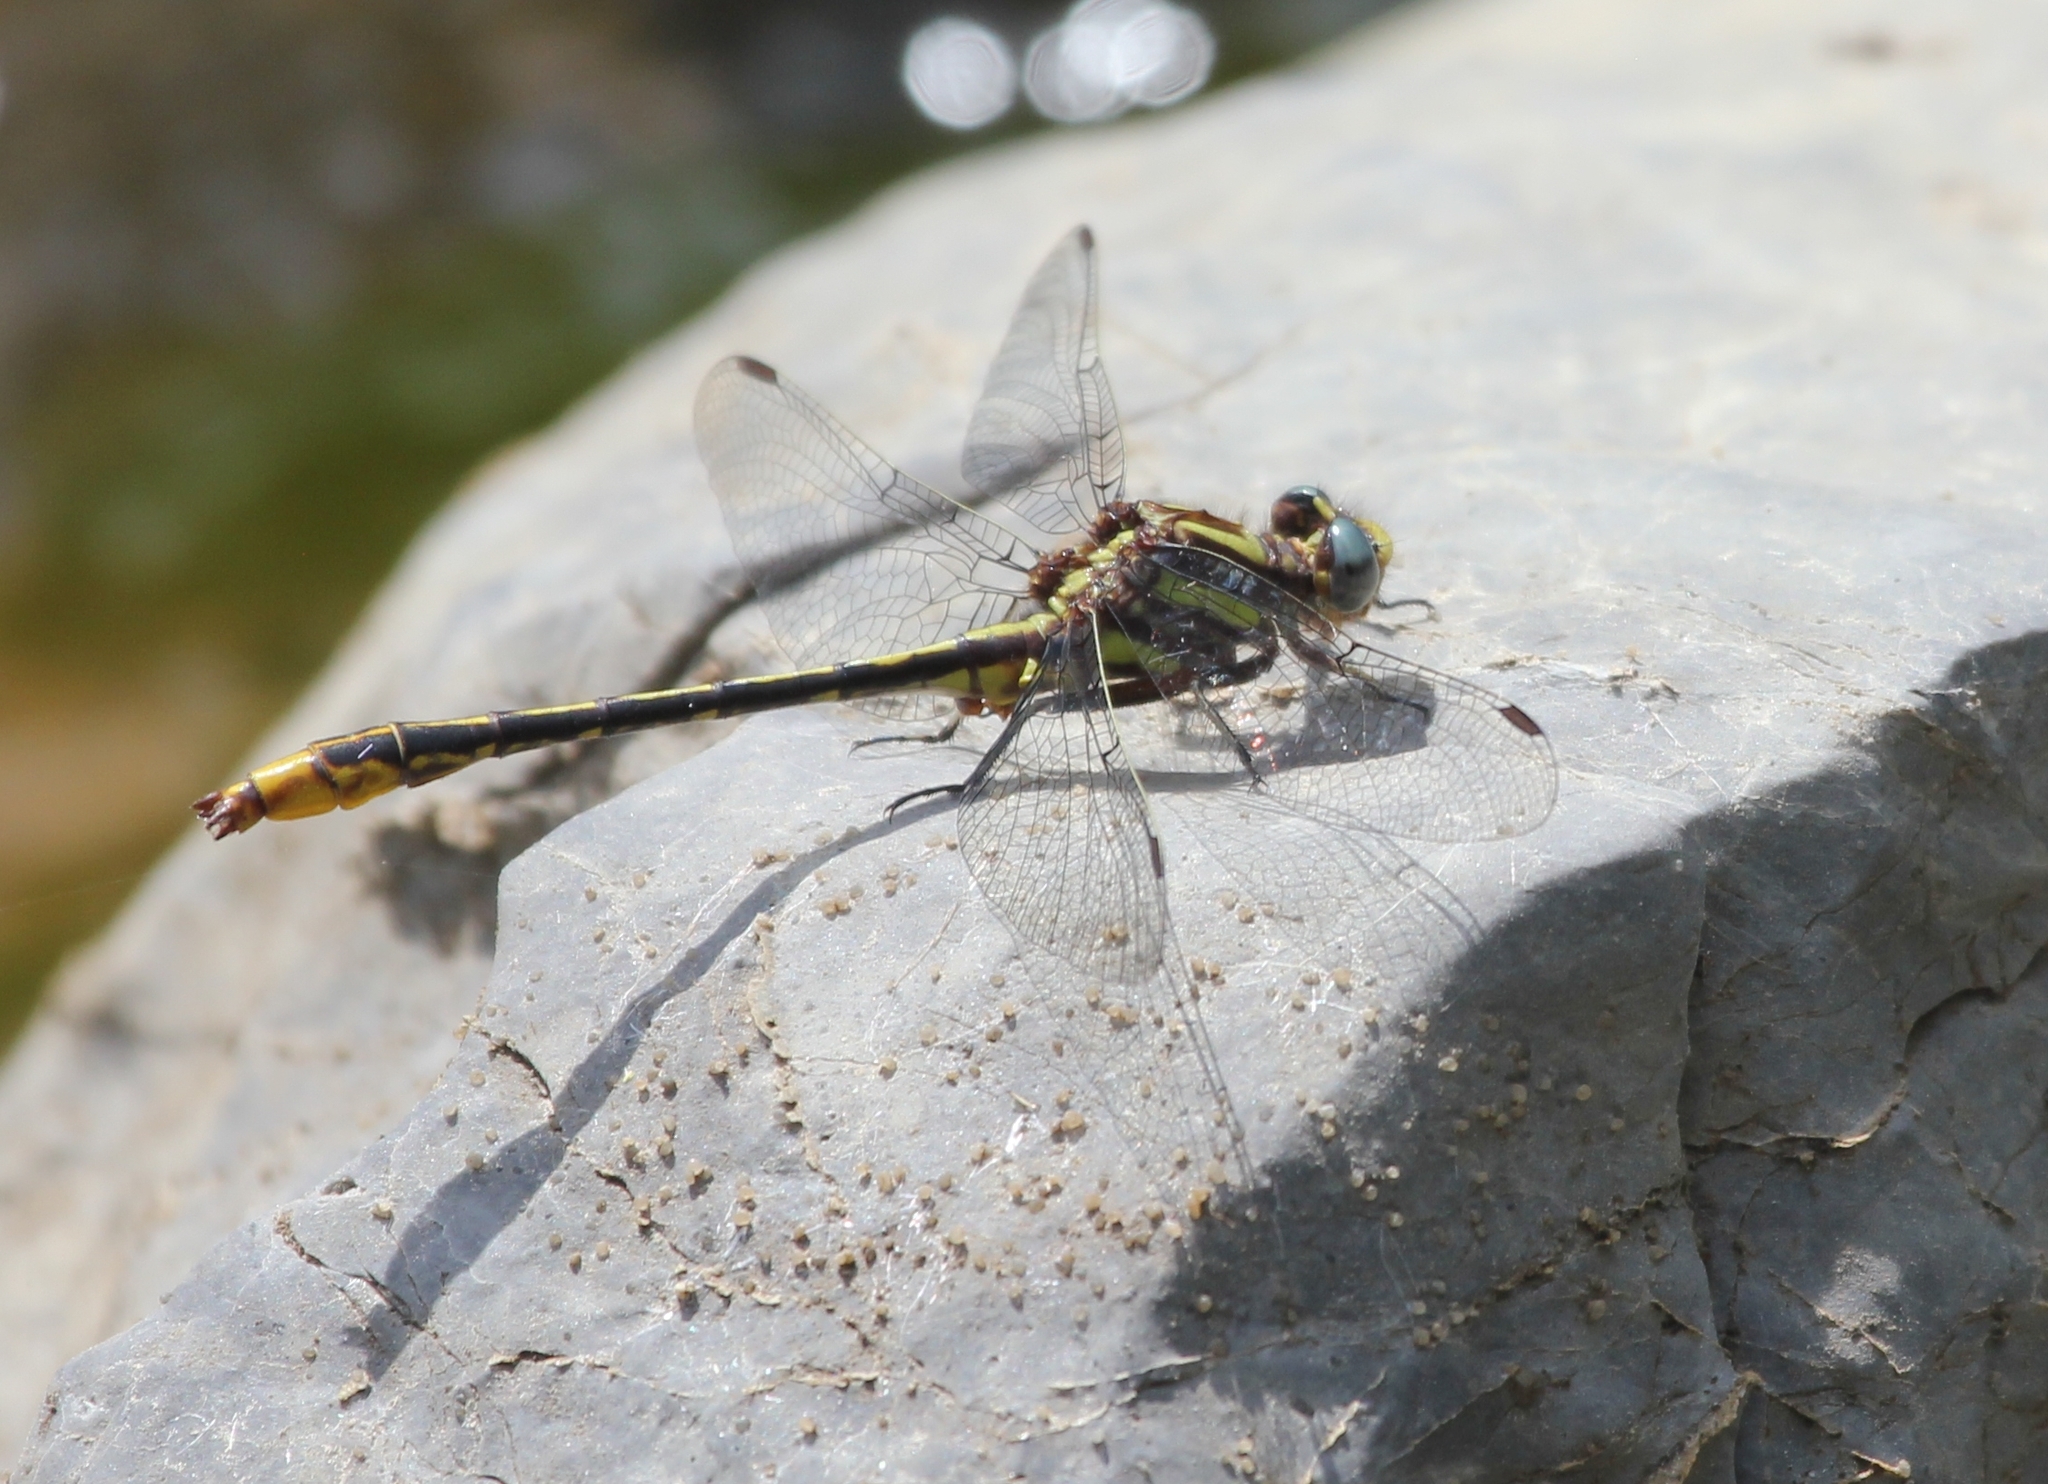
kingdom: Animalia
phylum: Arthropoda
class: Insecta
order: Odonata
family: Gomphidae
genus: Phanogomphus
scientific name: Phanogomphus exilis
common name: Lancet clubtail
